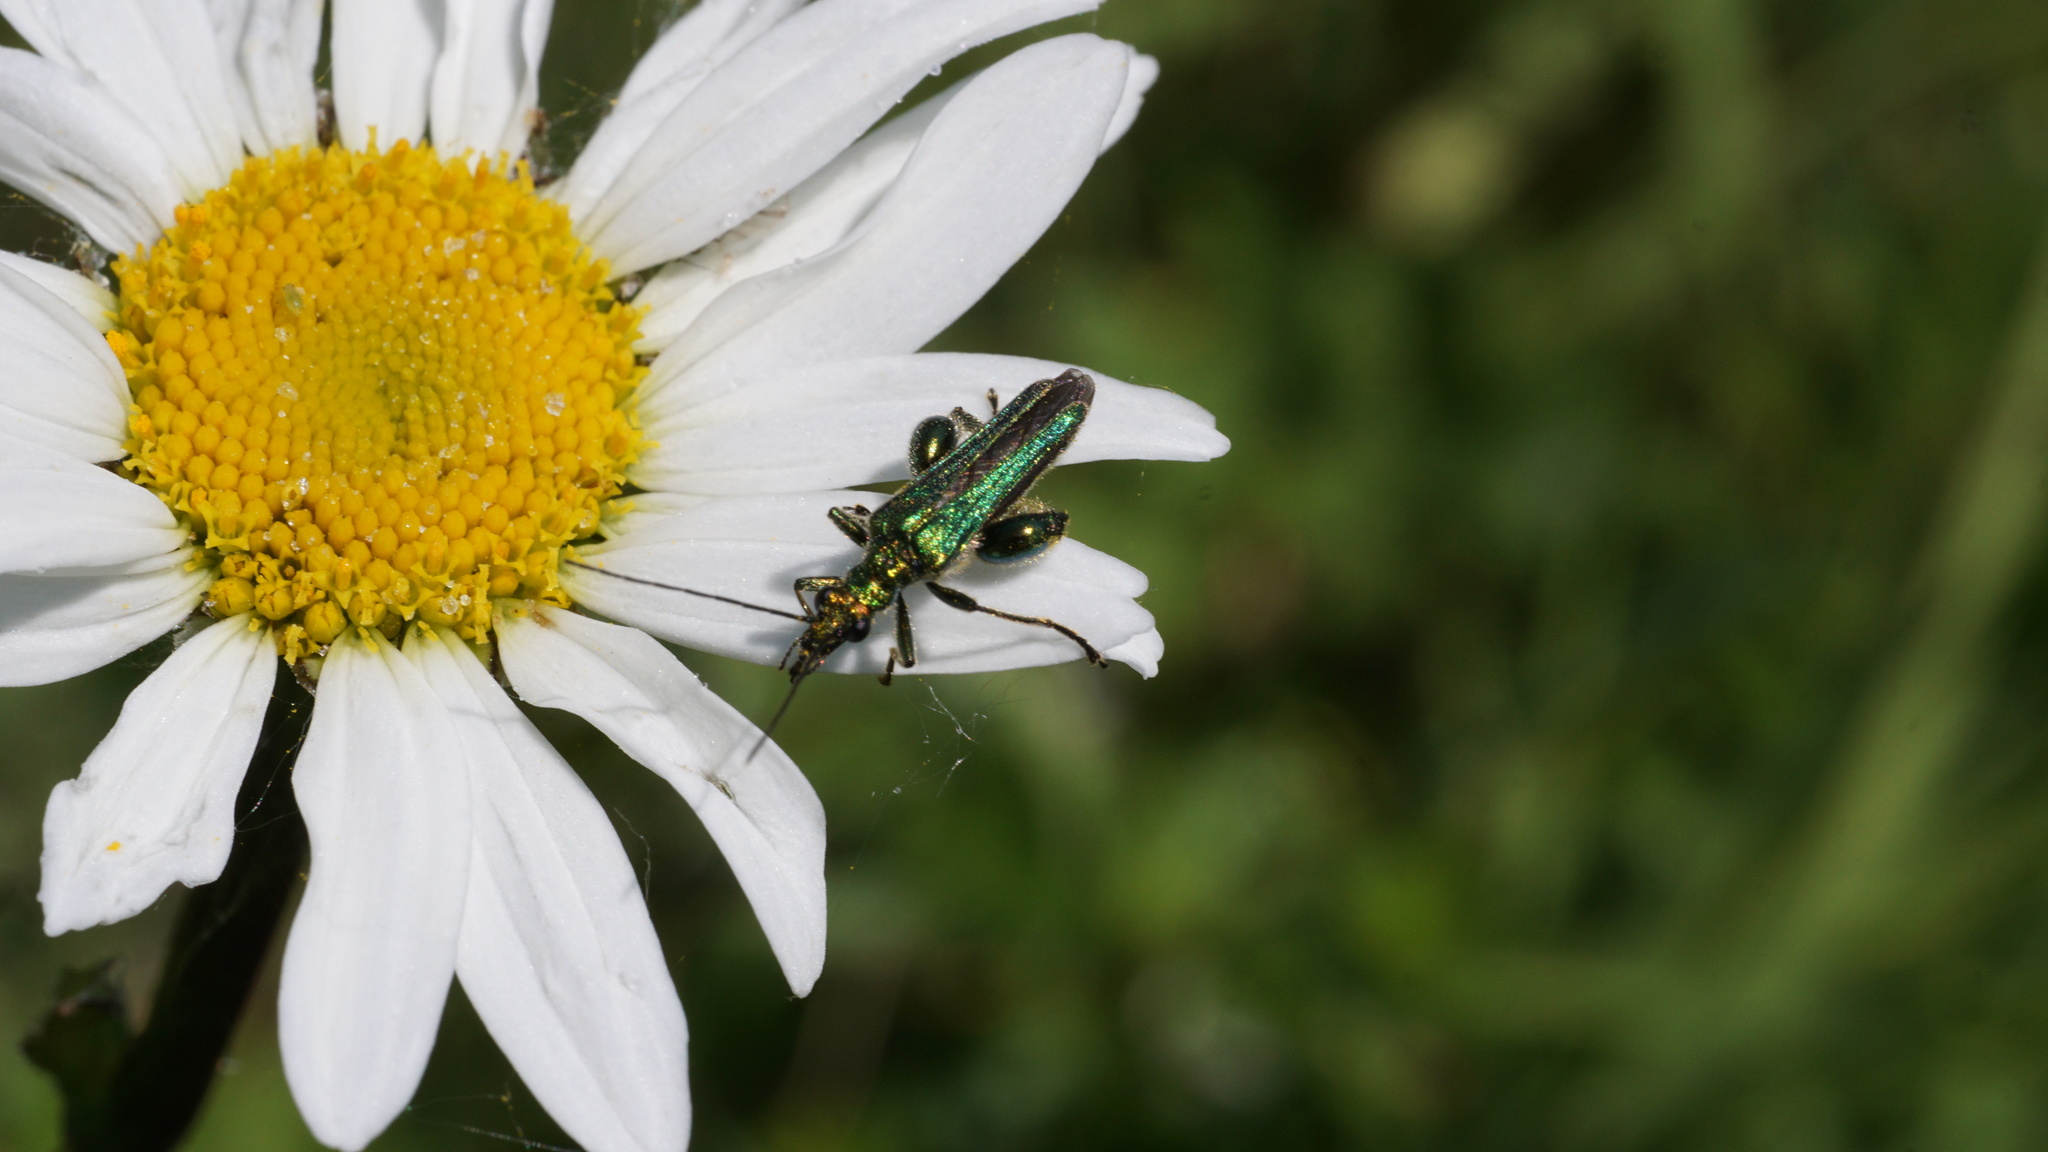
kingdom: Animalia
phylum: Arthropoda
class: Insecta
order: Coleoptera
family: Oedemeridae
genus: Oedemera
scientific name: Oedemera nobilis
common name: Swollen-thighed beetle
